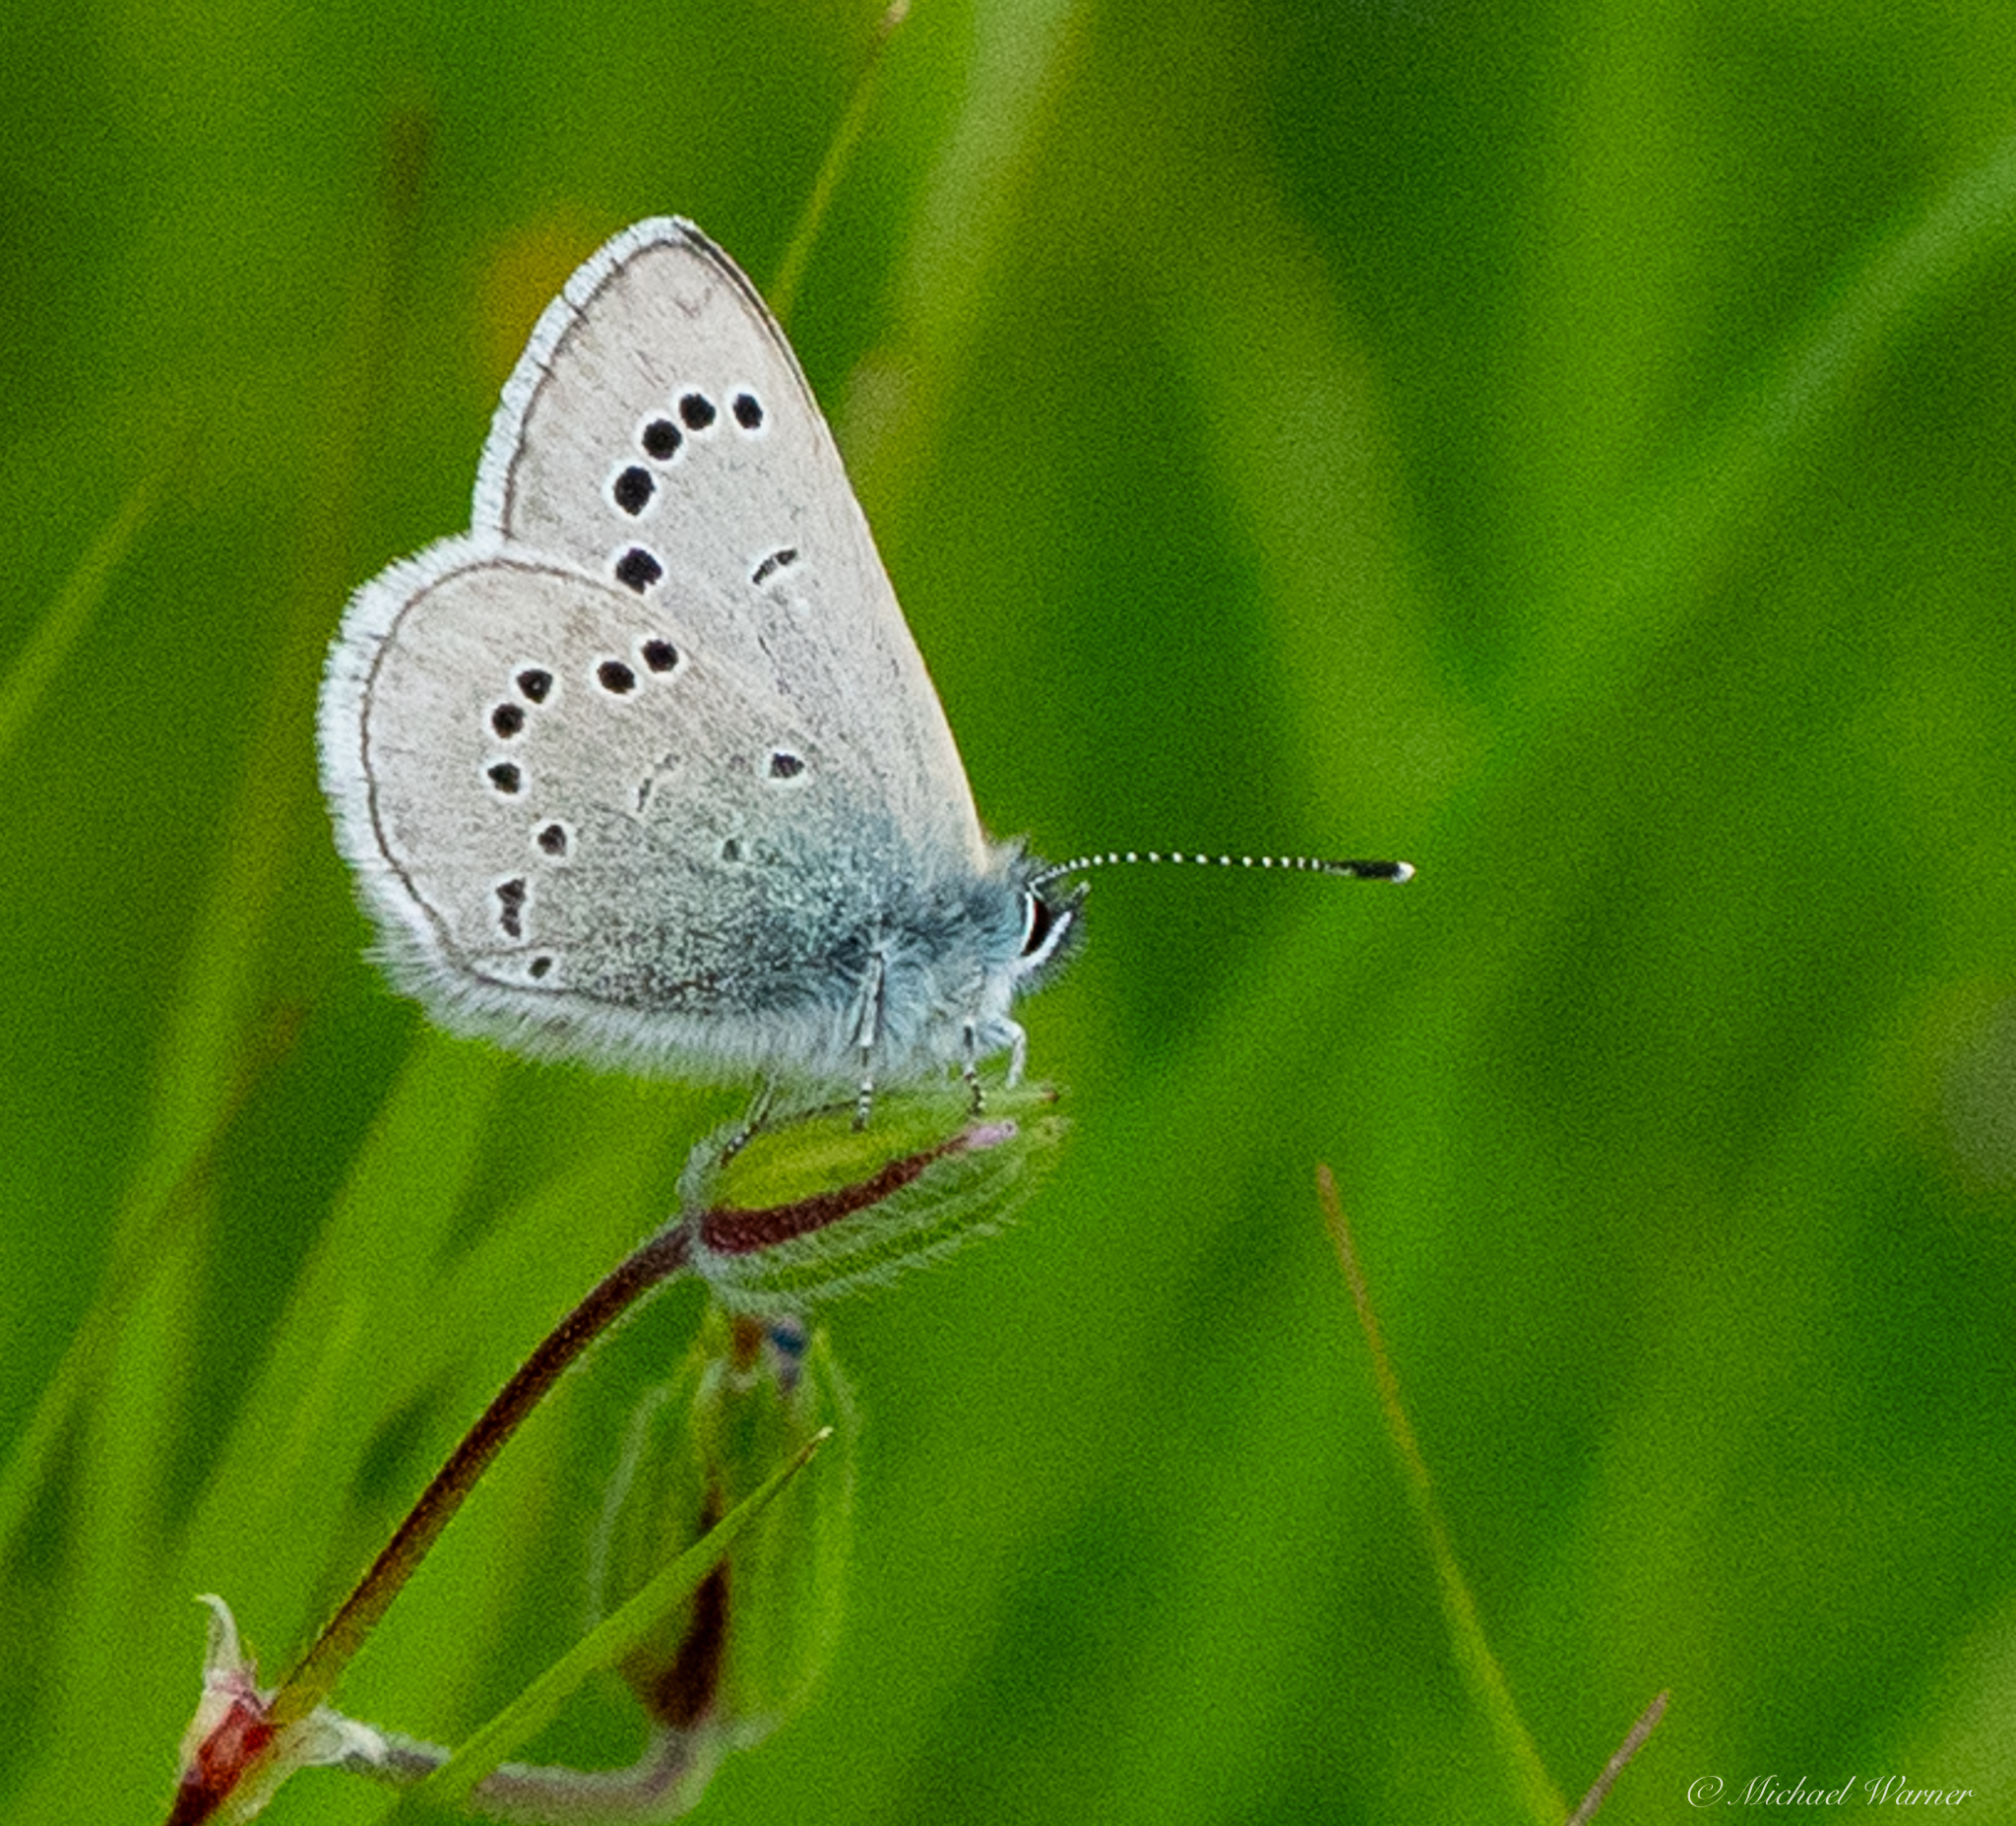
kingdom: Animalia
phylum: Arthropoda
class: Insecta
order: Lepidoptera
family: Lycaenidae
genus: Glaucopsyche
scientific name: Glaucopsyche lygdamus
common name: Silvery blue
